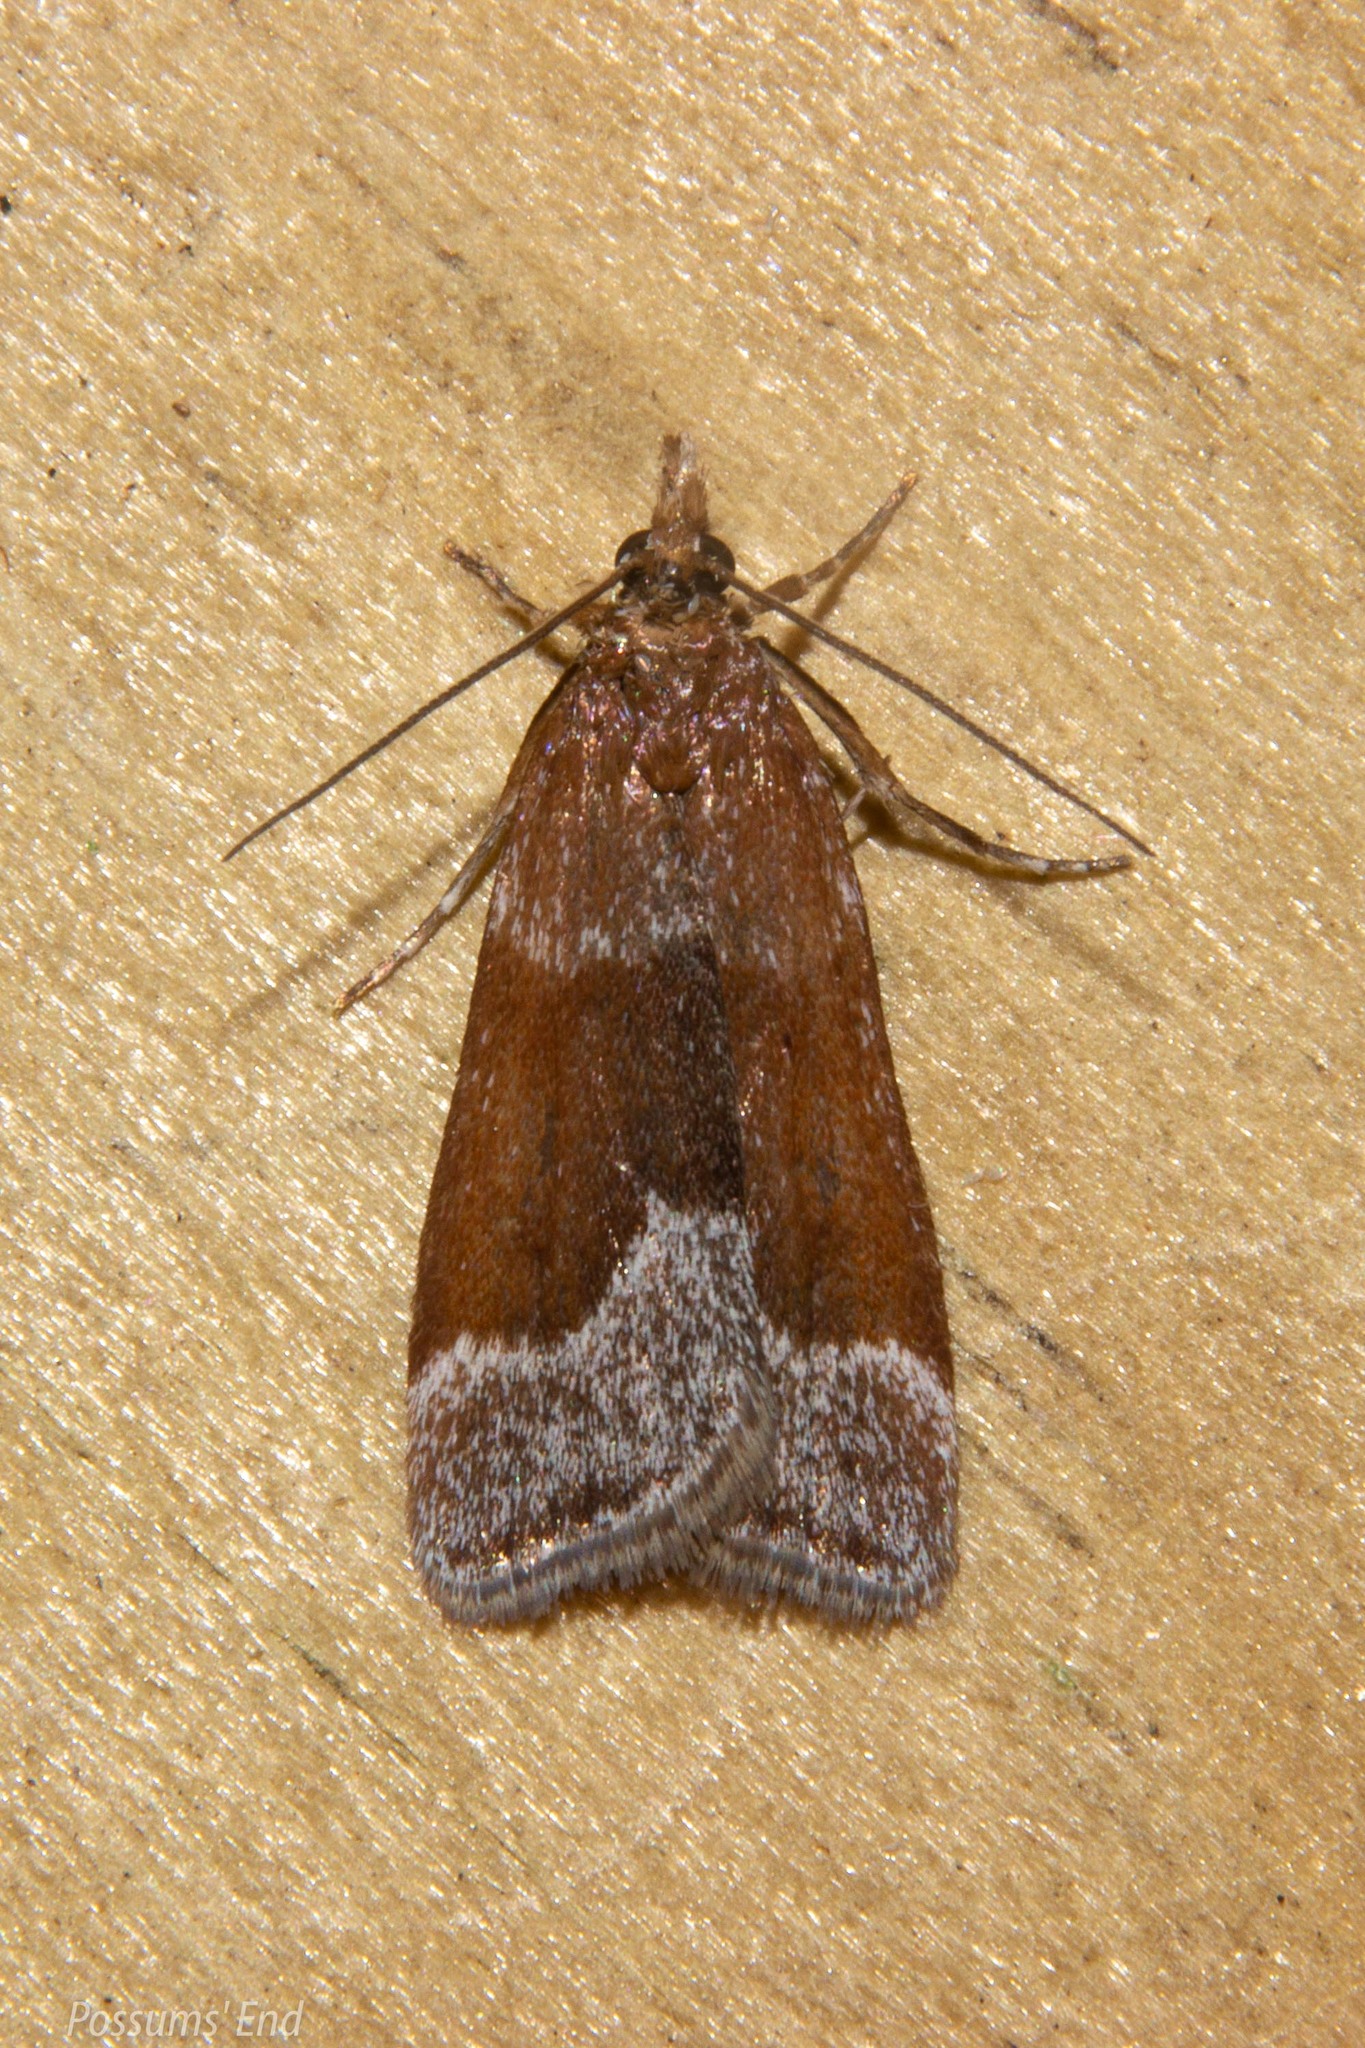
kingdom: Animalia
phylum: Arthropoda
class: Insecta
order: Lepidoptera
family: Crambidae
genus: Eudonia
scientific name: Eudonia feredayi
